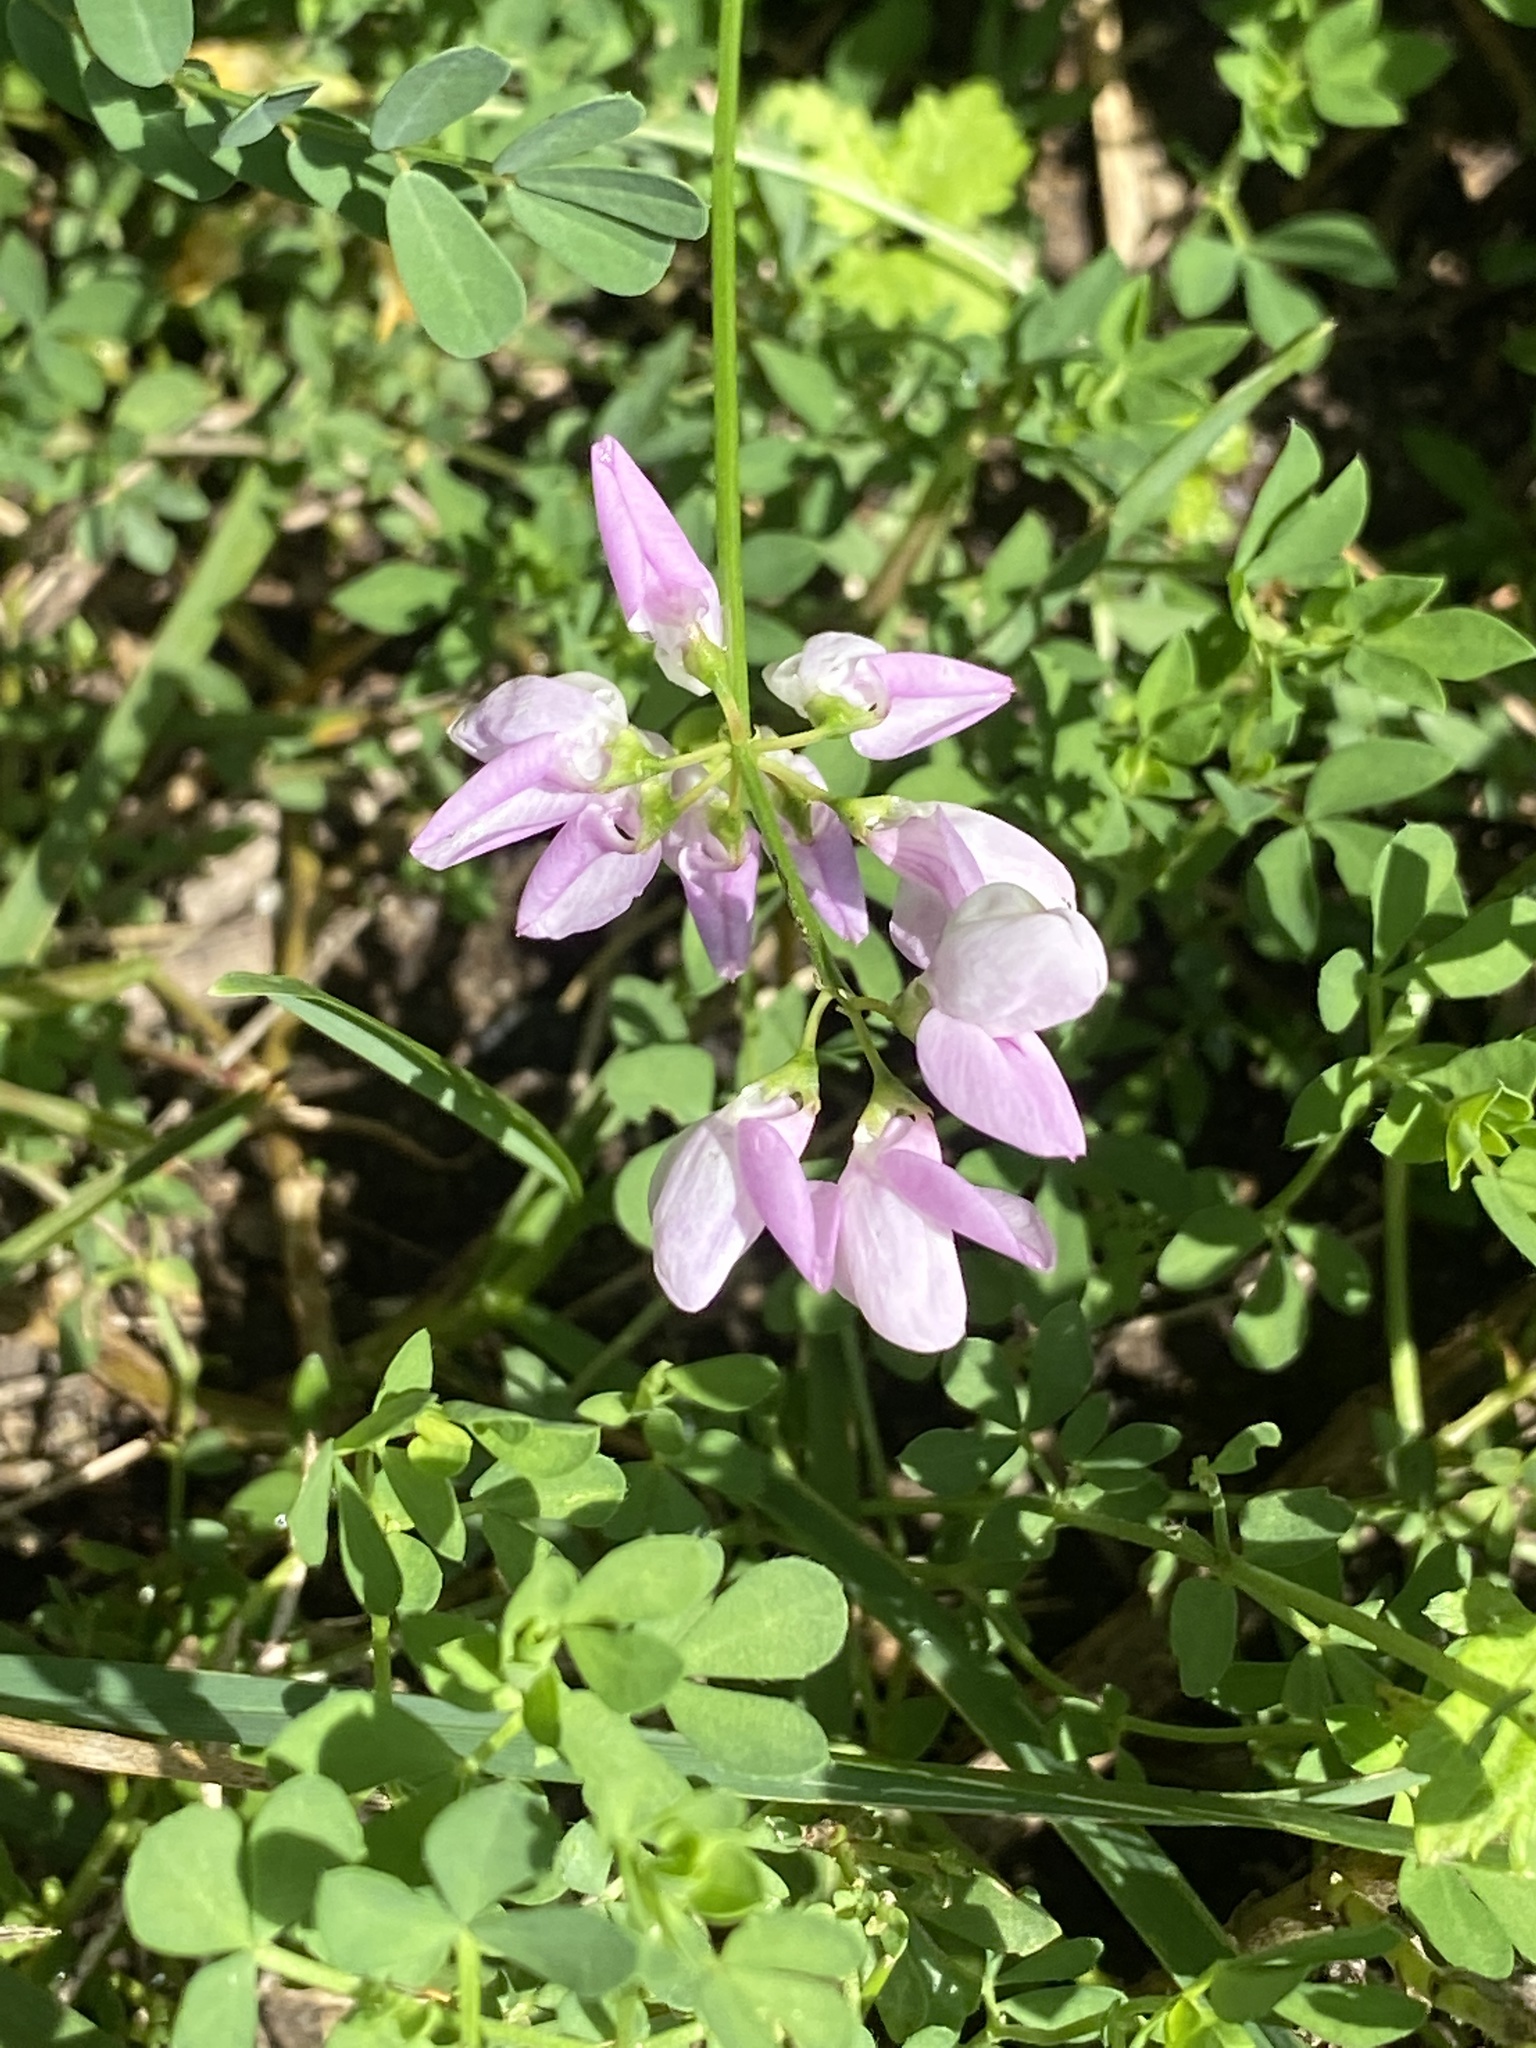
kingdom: Plantae
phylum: Tracheophyta
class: Magnoliopsida
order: Fabales
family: Fabaceae
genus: Coronilla
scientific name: Coronilla varia
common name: Crownvetch
